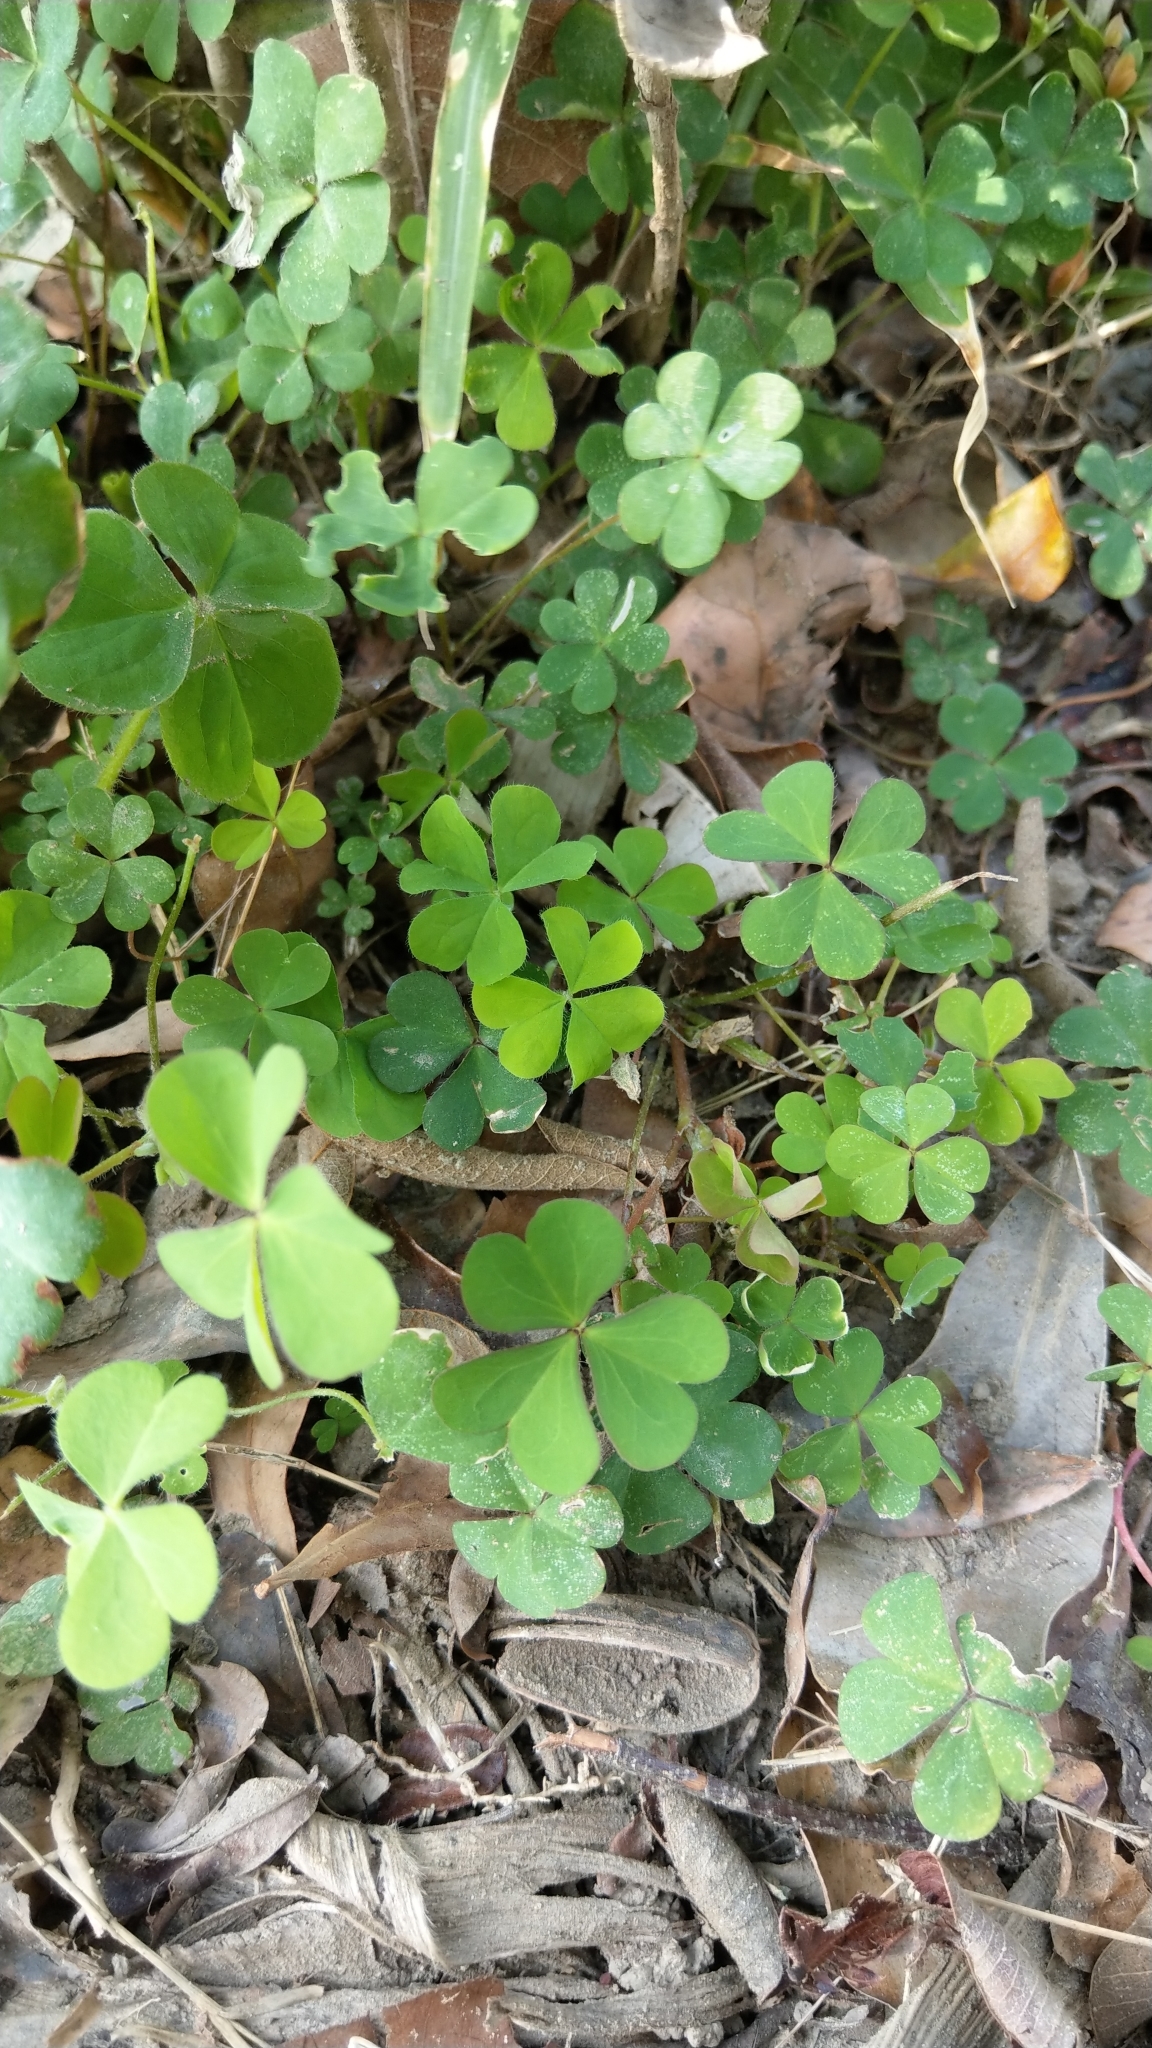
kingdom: Plantae
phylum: Tracheophyta
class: Magnoliopsida
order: Oxalidales
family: Oxalidaceae
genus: Oxalis
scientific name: Oxalis corniculata
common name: Procumbent yellow-sorrel
